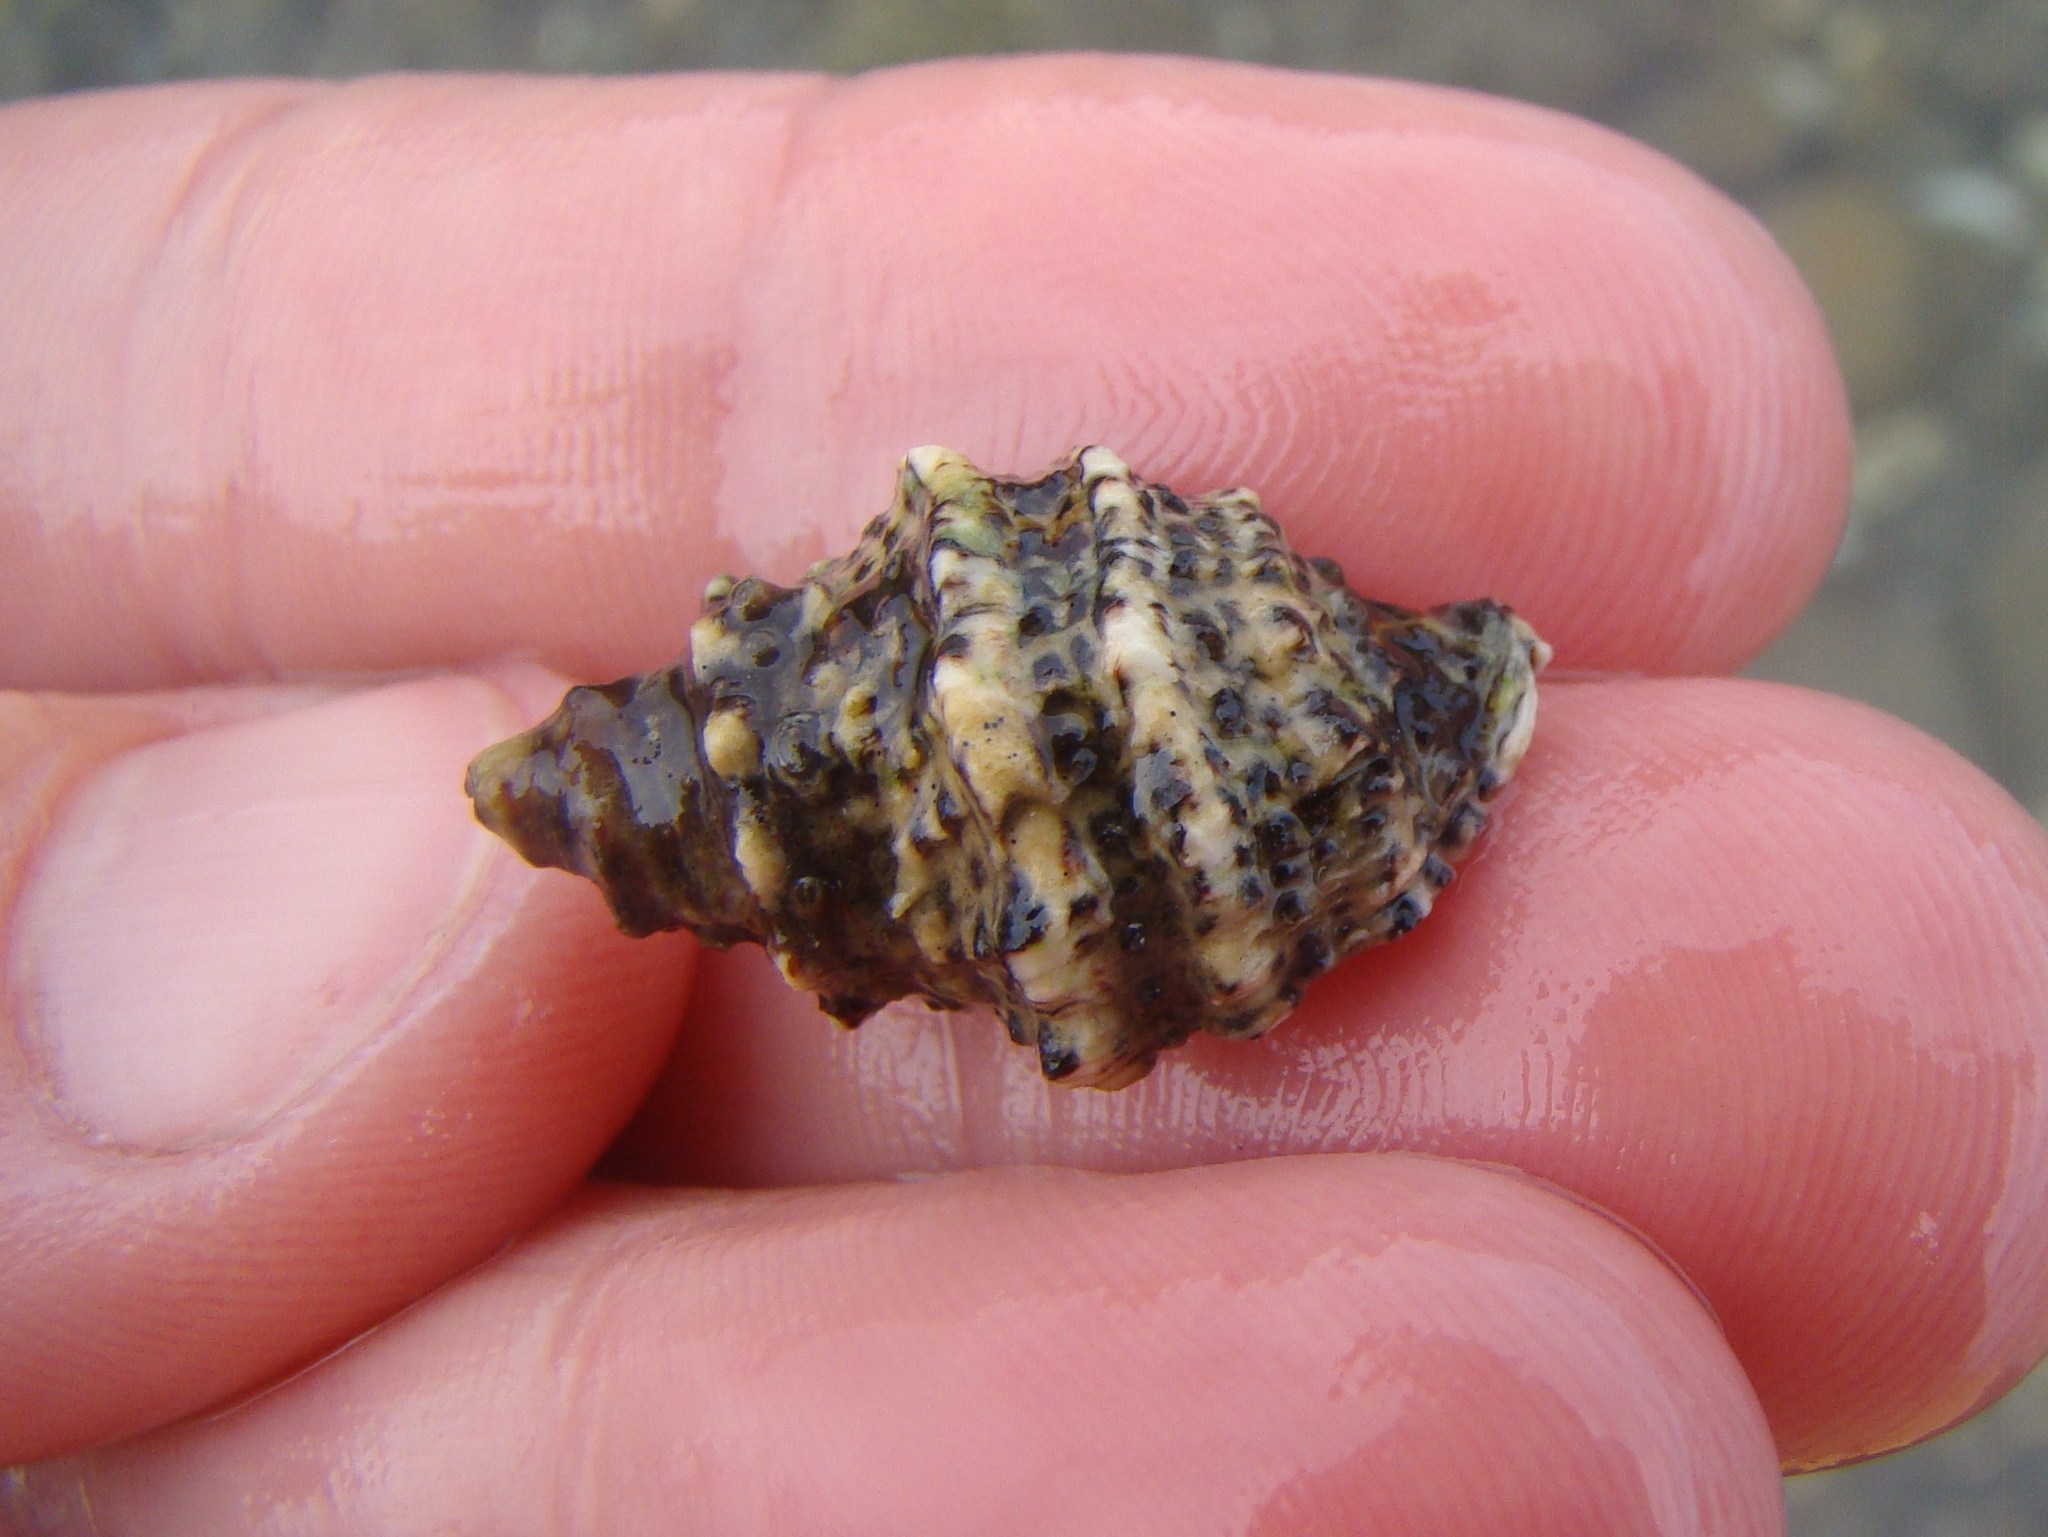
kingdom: Animalia
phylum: Mollusca
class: Gastropoda
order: Neogastropoda
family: Muricidae
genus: Haustrum
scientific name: Haustrum scobina
